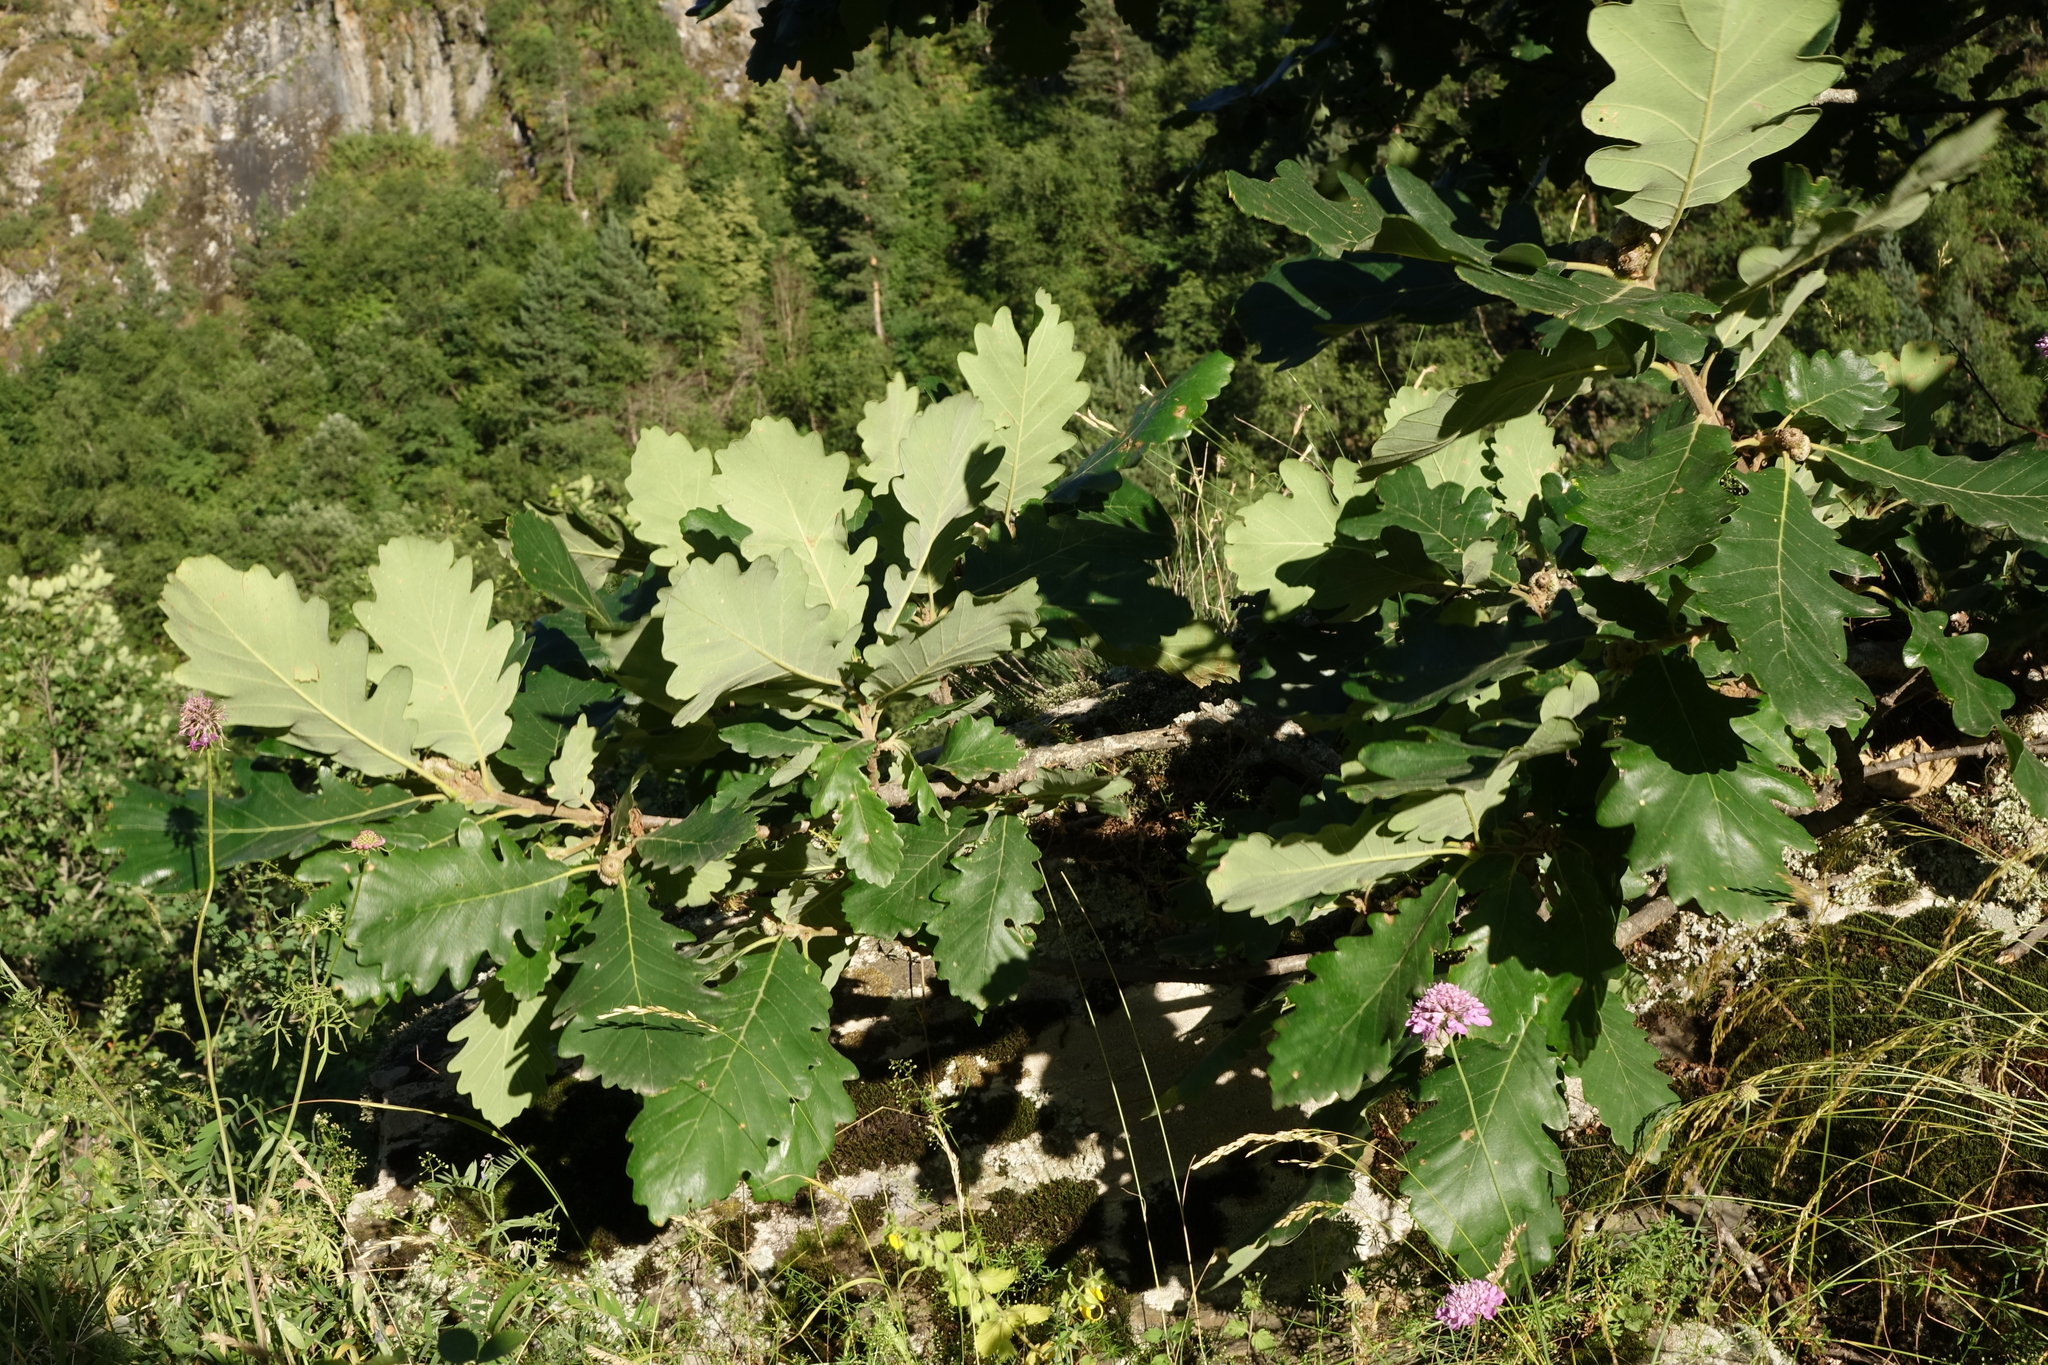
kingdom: Plantae
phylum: Tracheophyta
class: Magnoliopsida
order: Fagales
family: Fagaceae
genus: Quercus
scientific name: Quercus macranthera
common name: Caucasian oak
